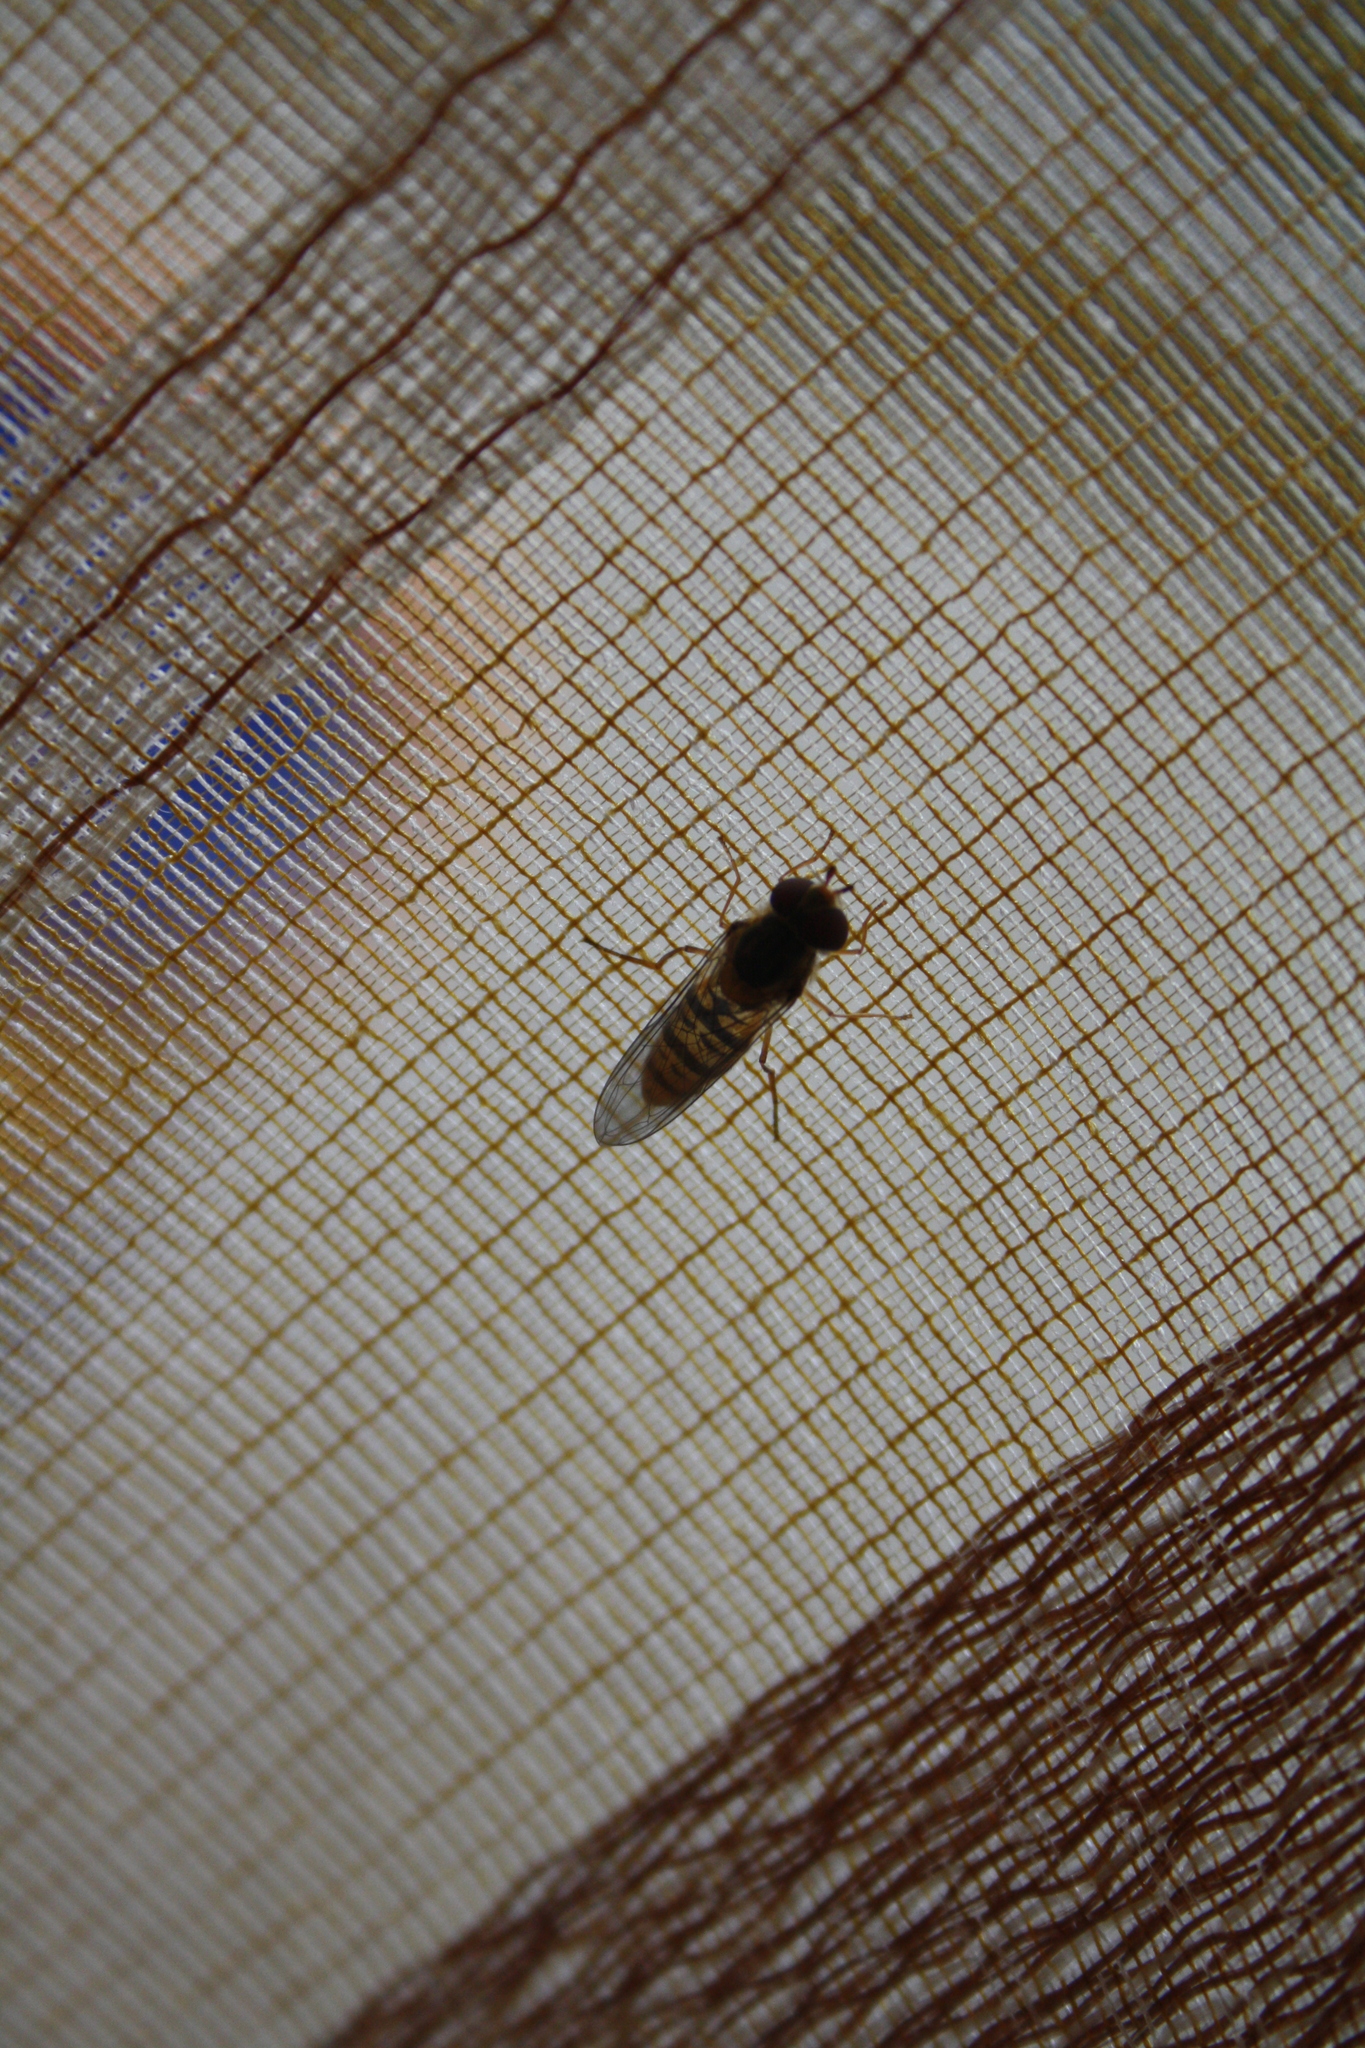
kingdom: Animalia
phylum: Arthropoda
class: Insecta
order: Diptera
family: Syrphidae
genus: Episyrphus
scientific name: Episyrphus balteatus
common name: Marmalade hoverfly
